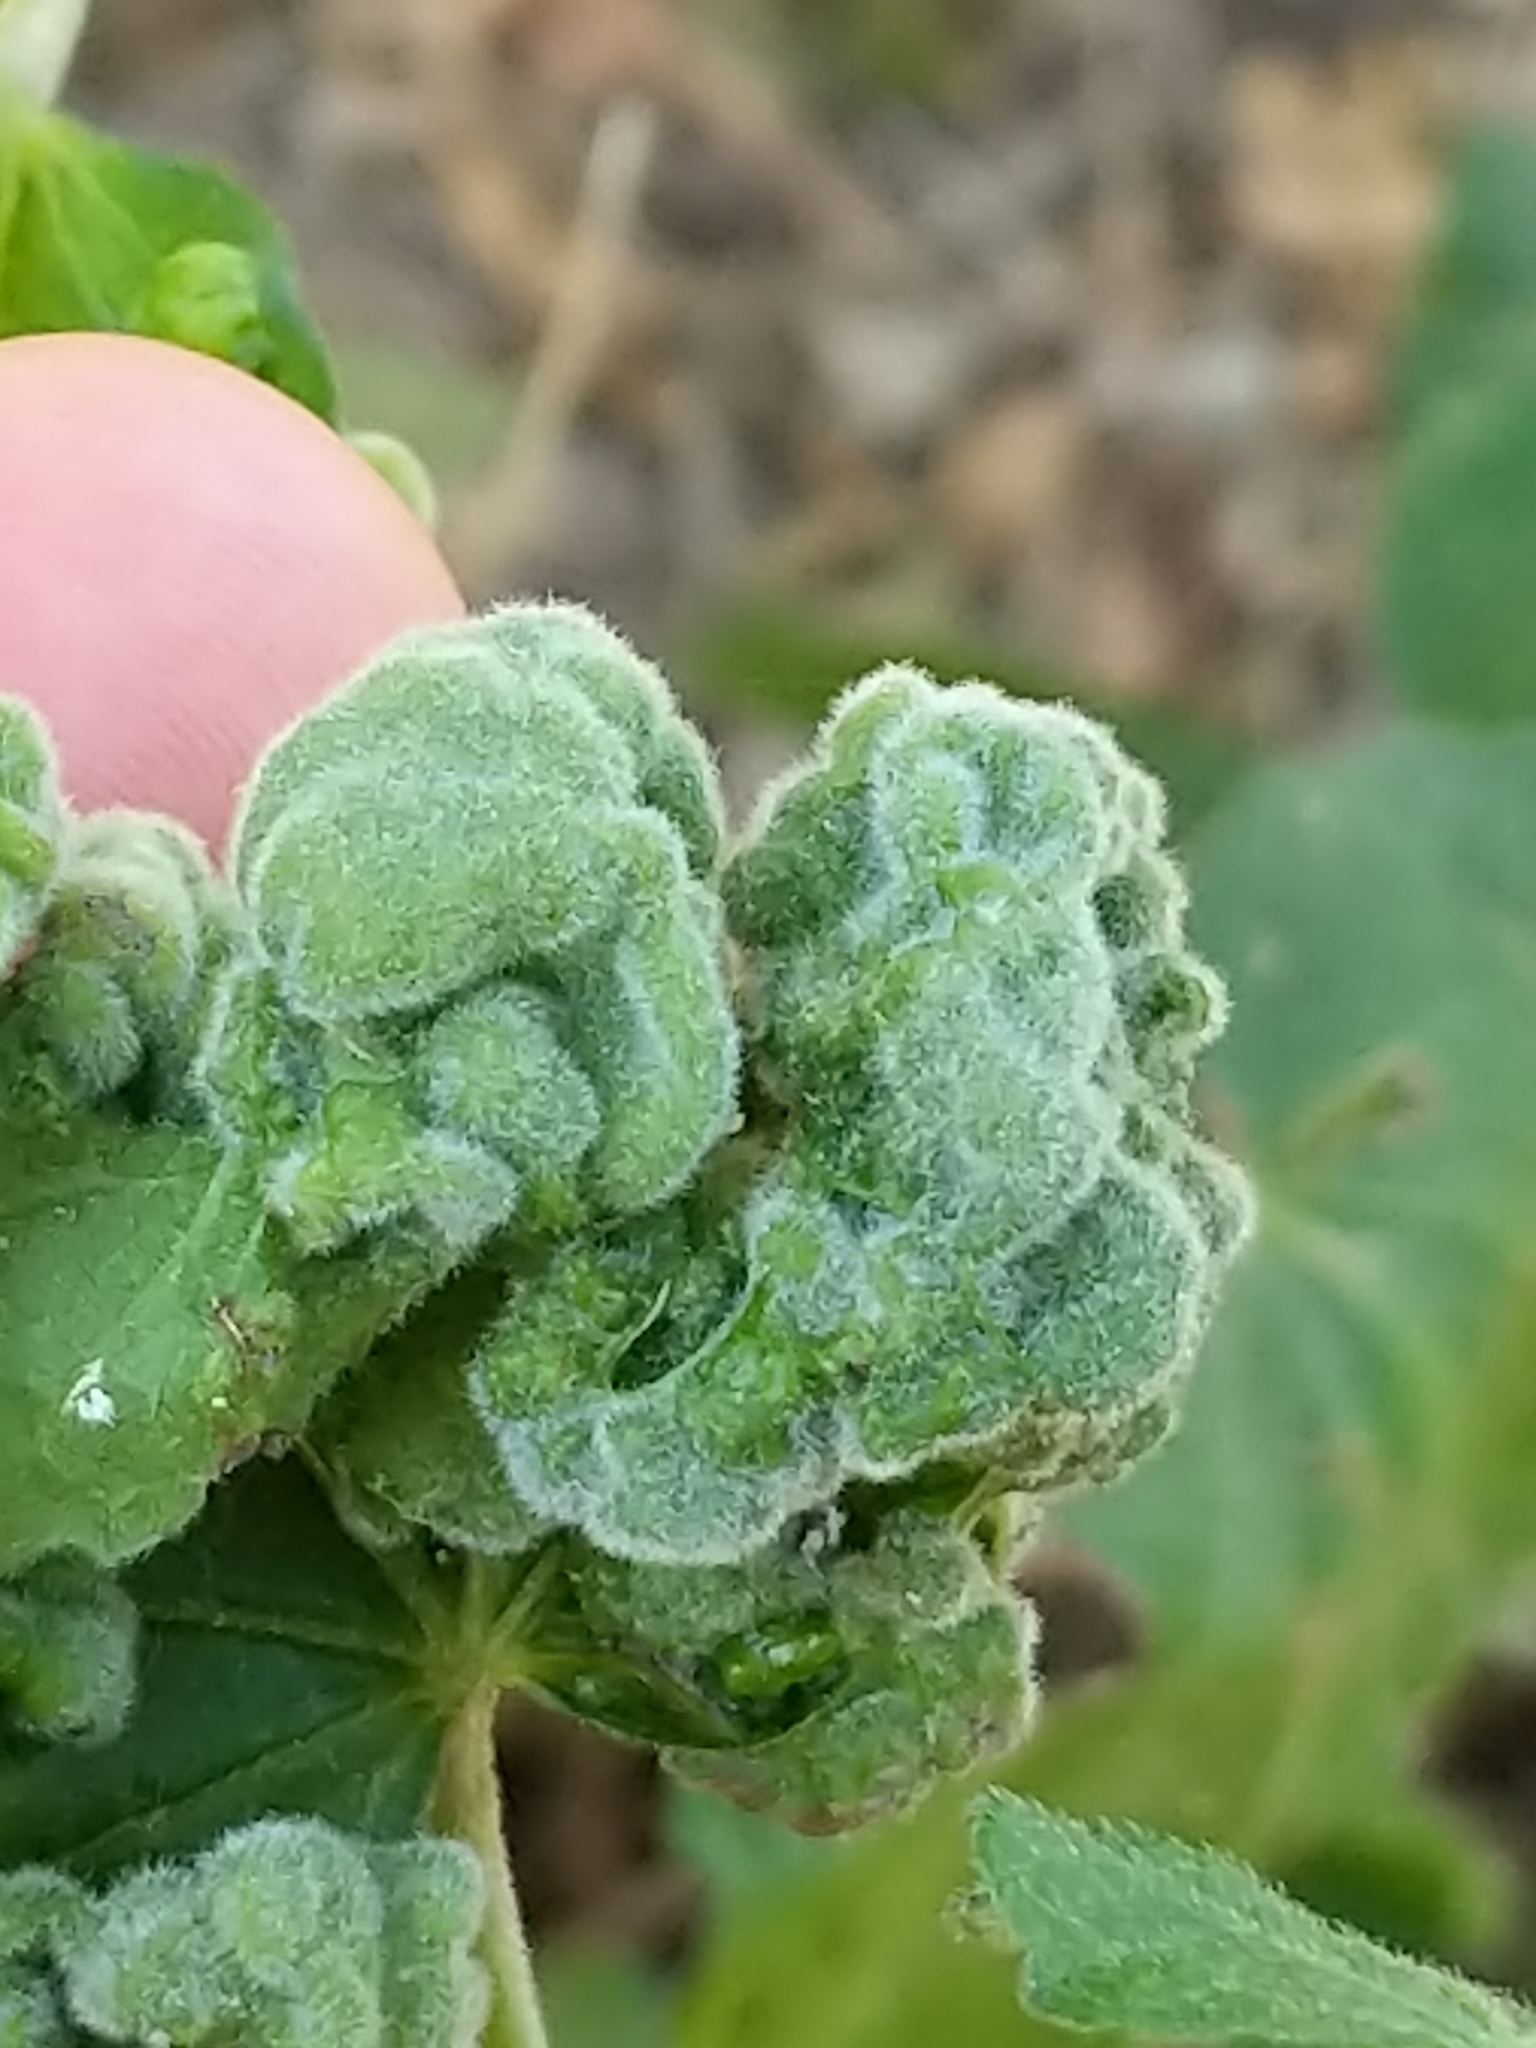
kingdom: Plantae
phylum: Tracheophyta
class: Magnoliopsida
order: Malvales
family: Malvaceae
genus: Malvaviscus
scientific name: Malvaviscus arboreus
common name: Wax mallow
